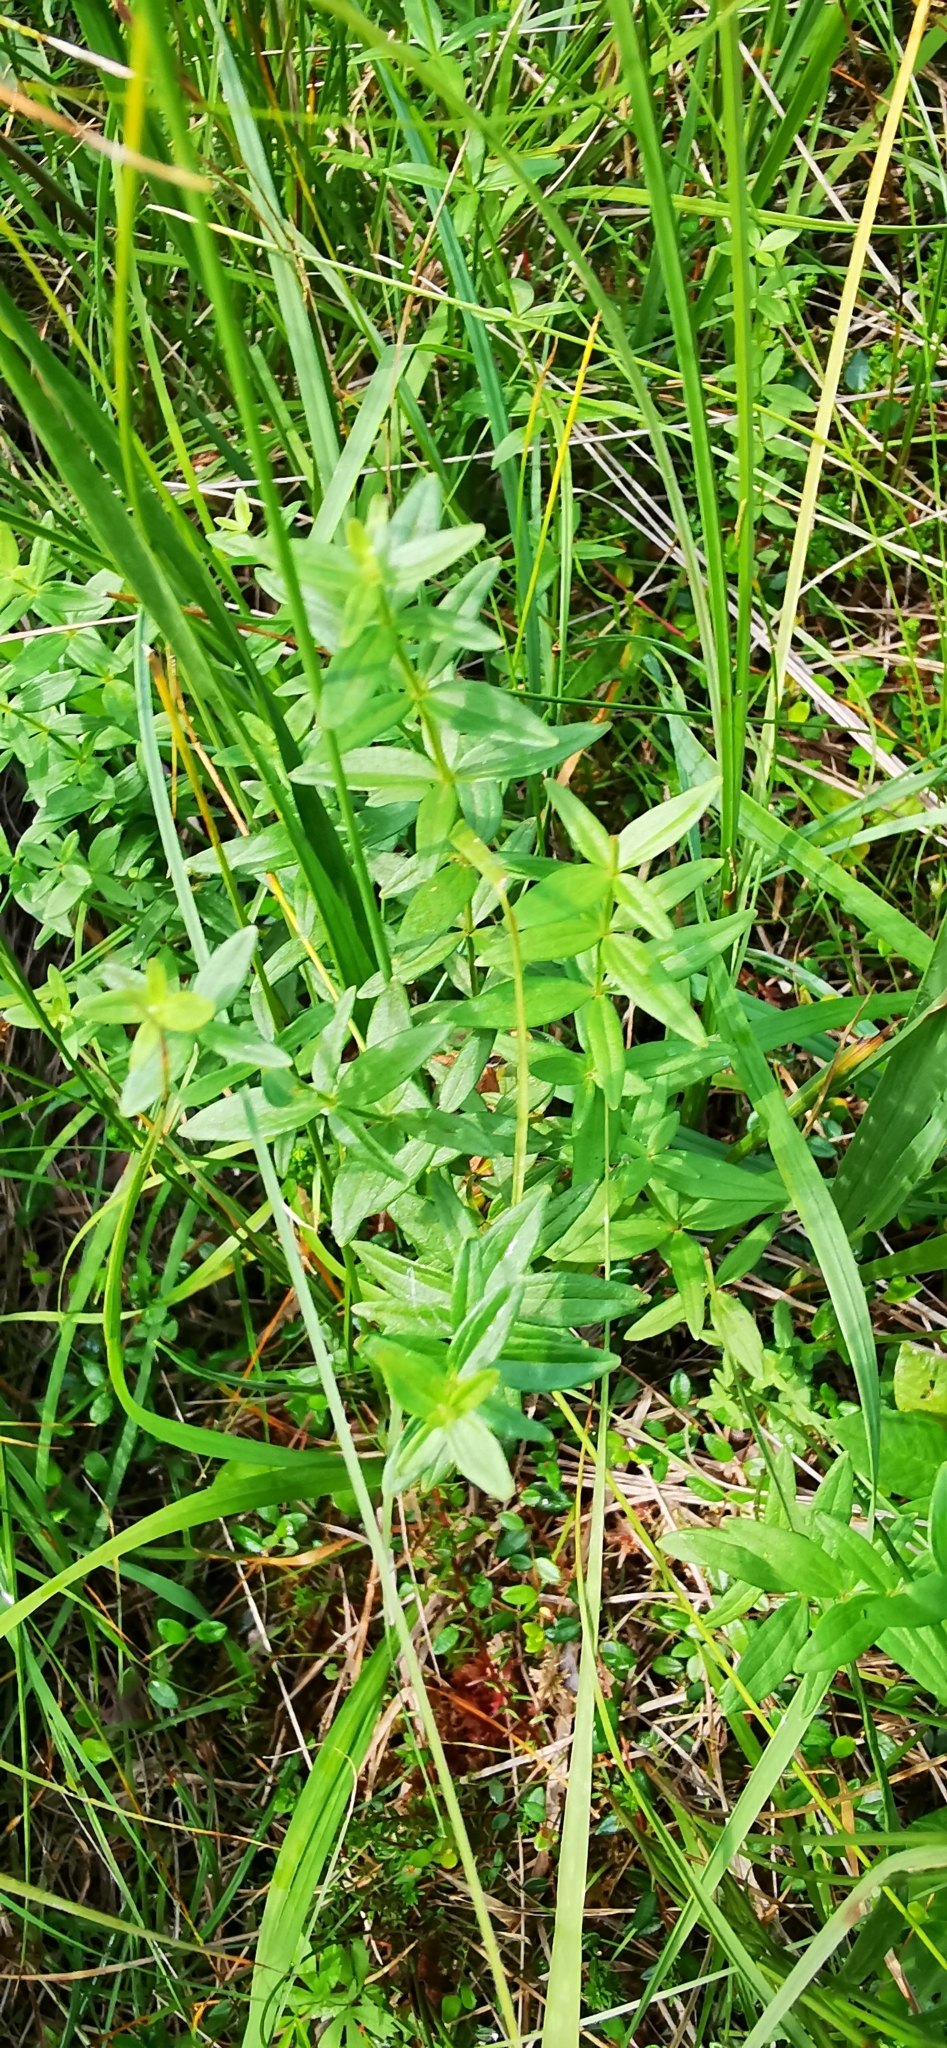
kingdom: Plantae
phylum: Tracheophyta
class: Magnoliopsida
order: Gentianales
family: Rubiaceae
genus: Galium
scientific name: Galium boreale
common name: Northern bedstraw
